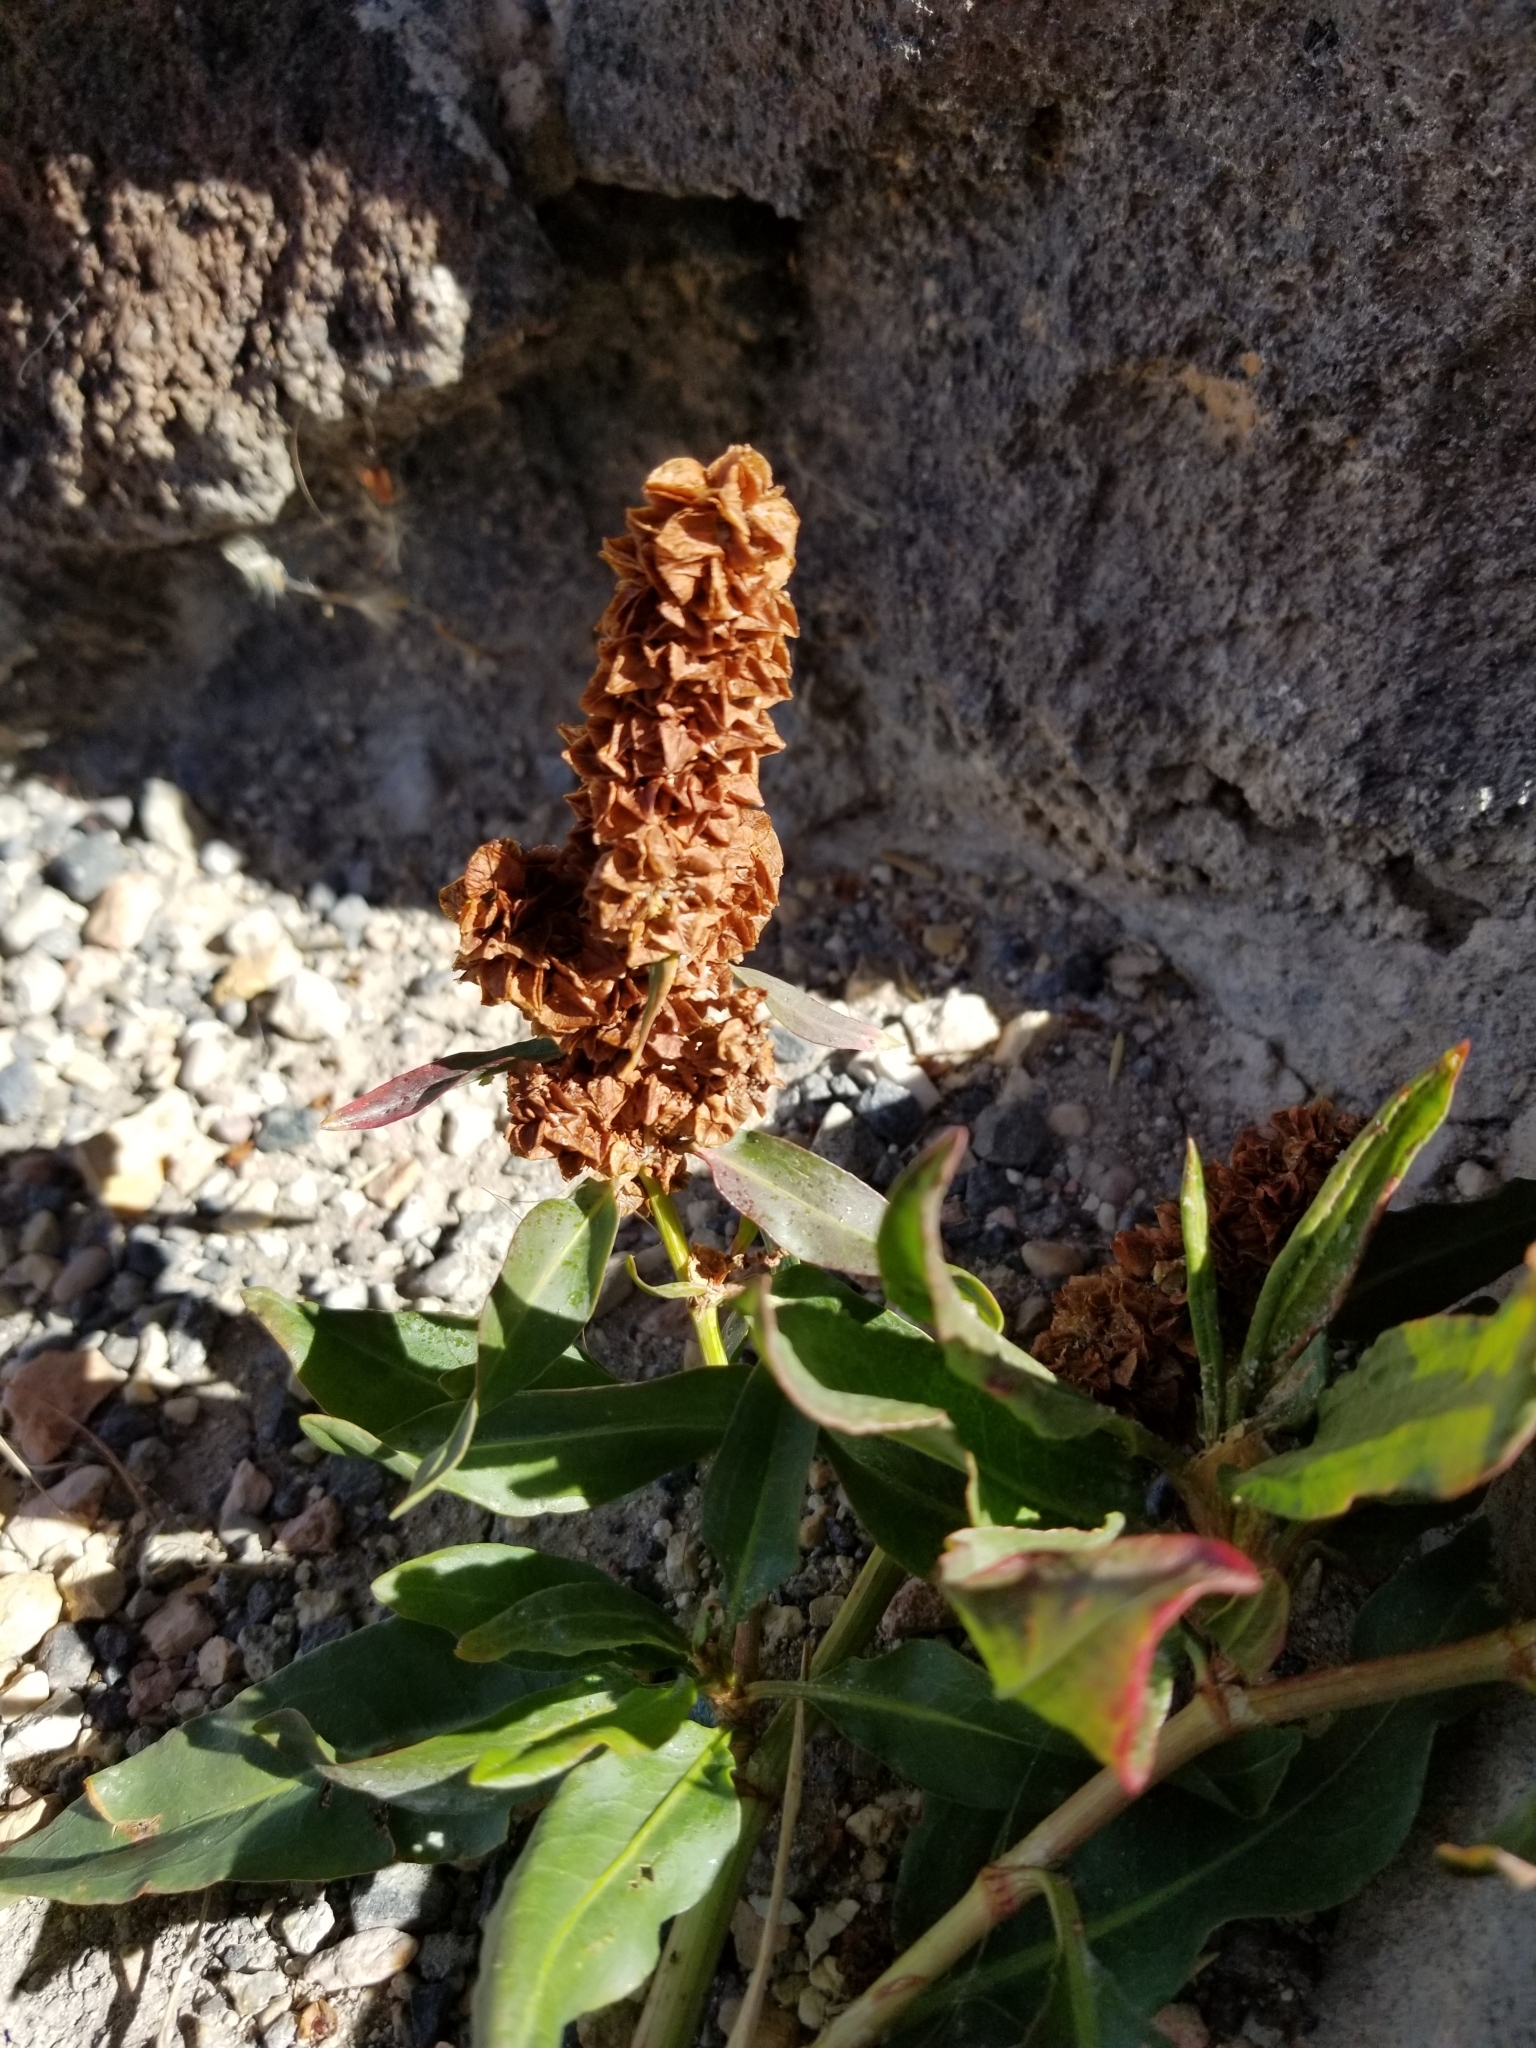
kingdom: Plantae
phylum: Tracheophyta
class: Magnoliopsida
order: Caryophyllales
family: Polygonaceae
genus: Rumex
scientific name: Rumex occidentalis
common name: Western dock
